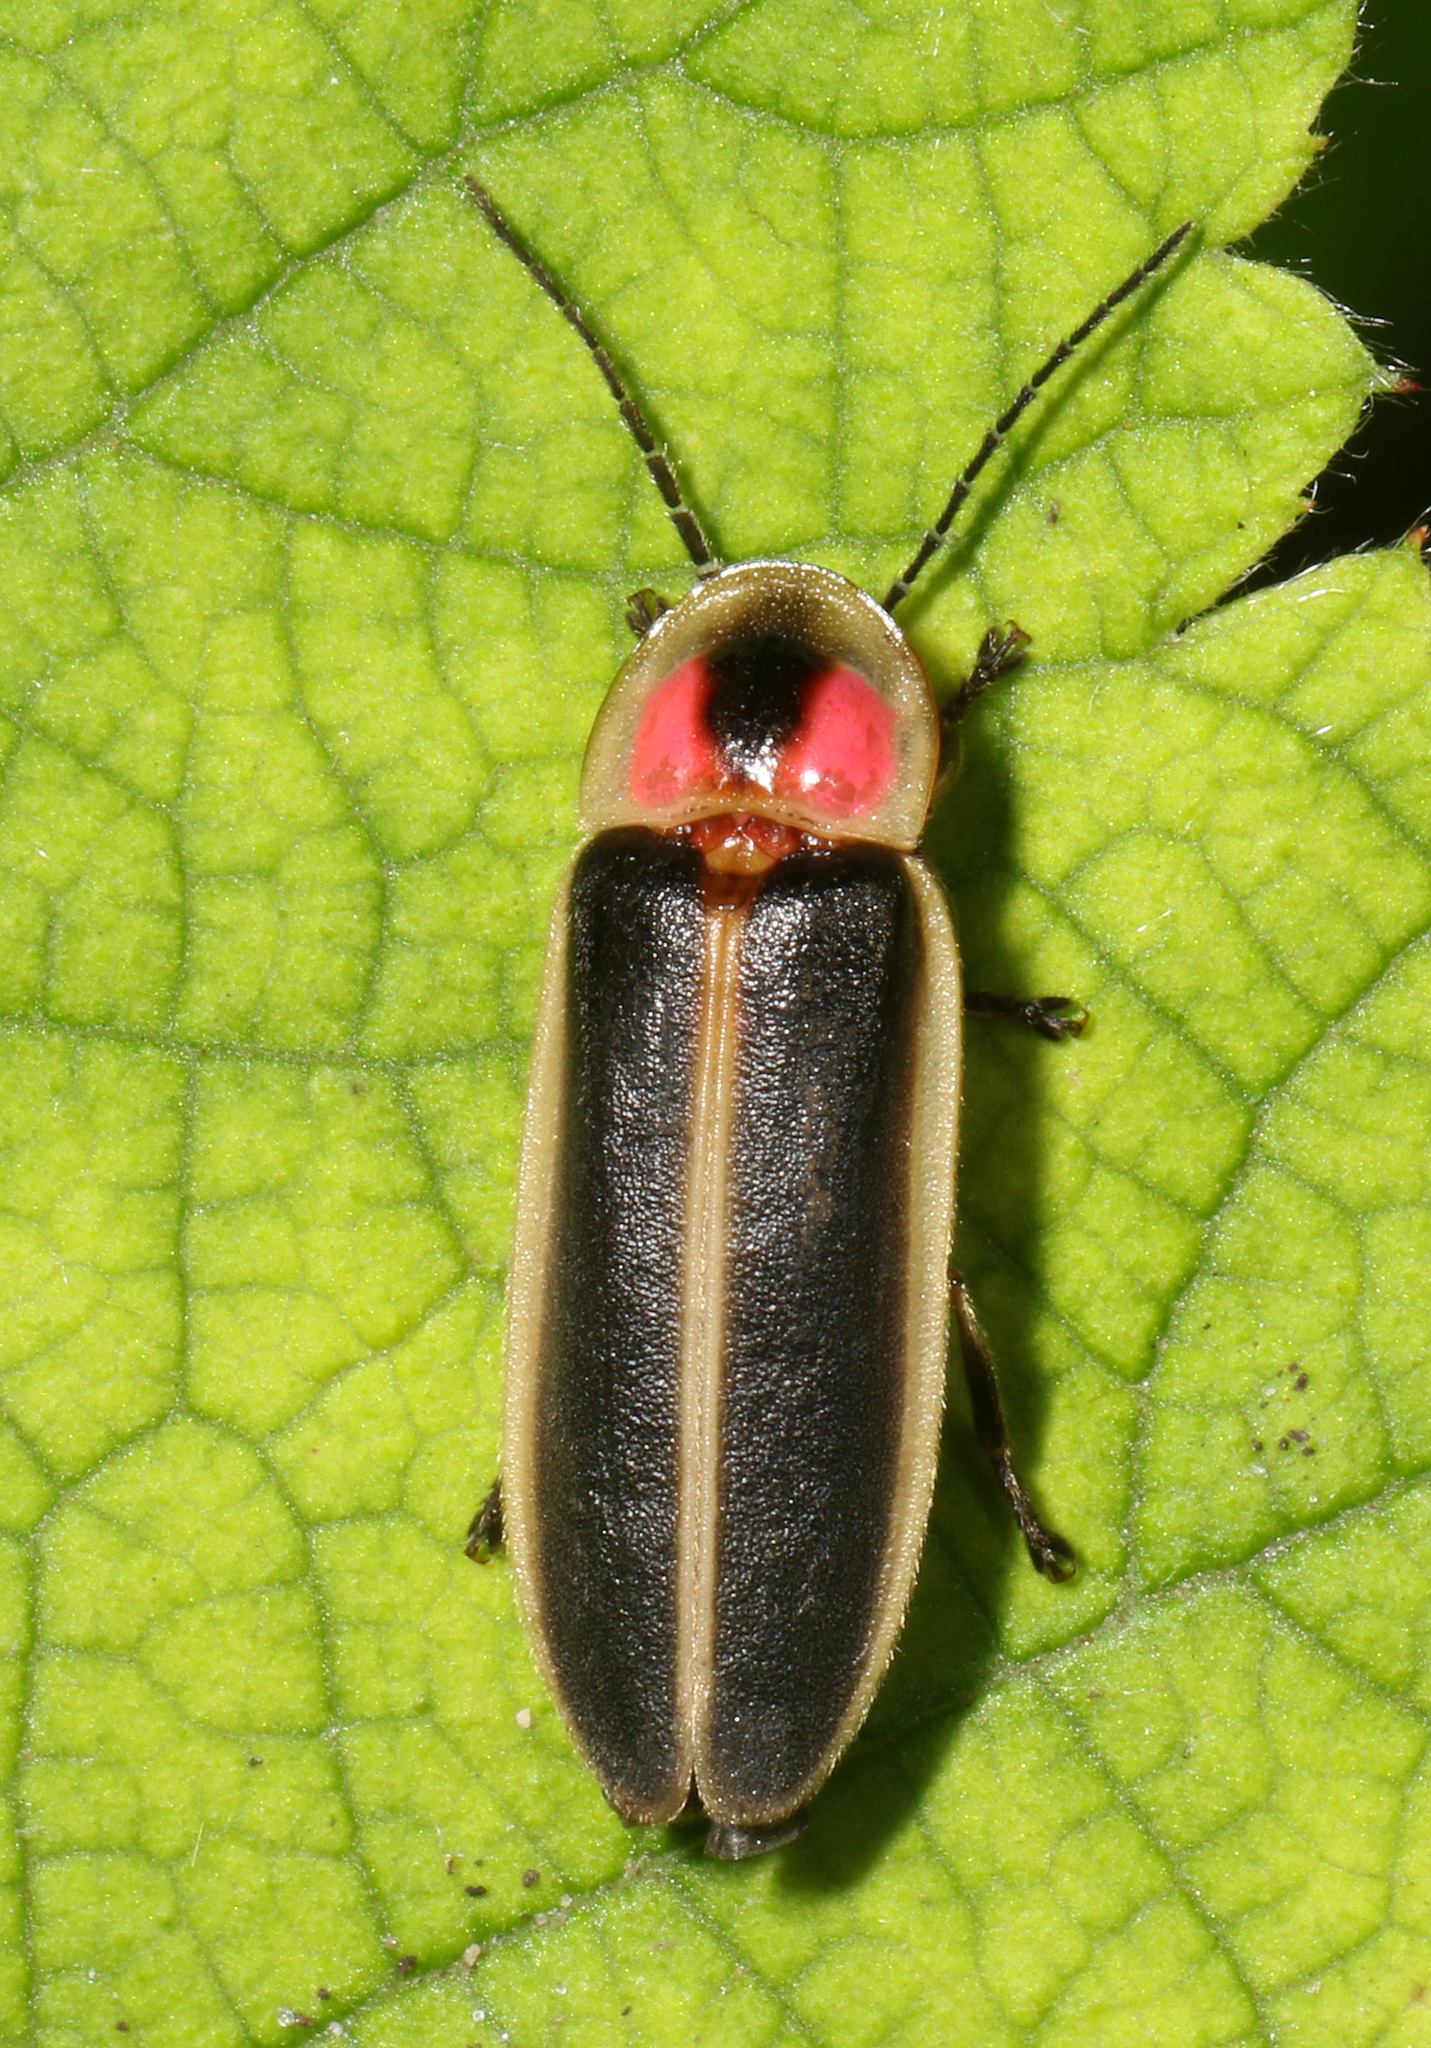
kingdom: Animalia
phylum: Arthropoda
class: Insecta
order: Coleoptera
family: Lampyridae
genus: Photinus
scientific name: Photinus pyralis
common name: Big dipper firefly
